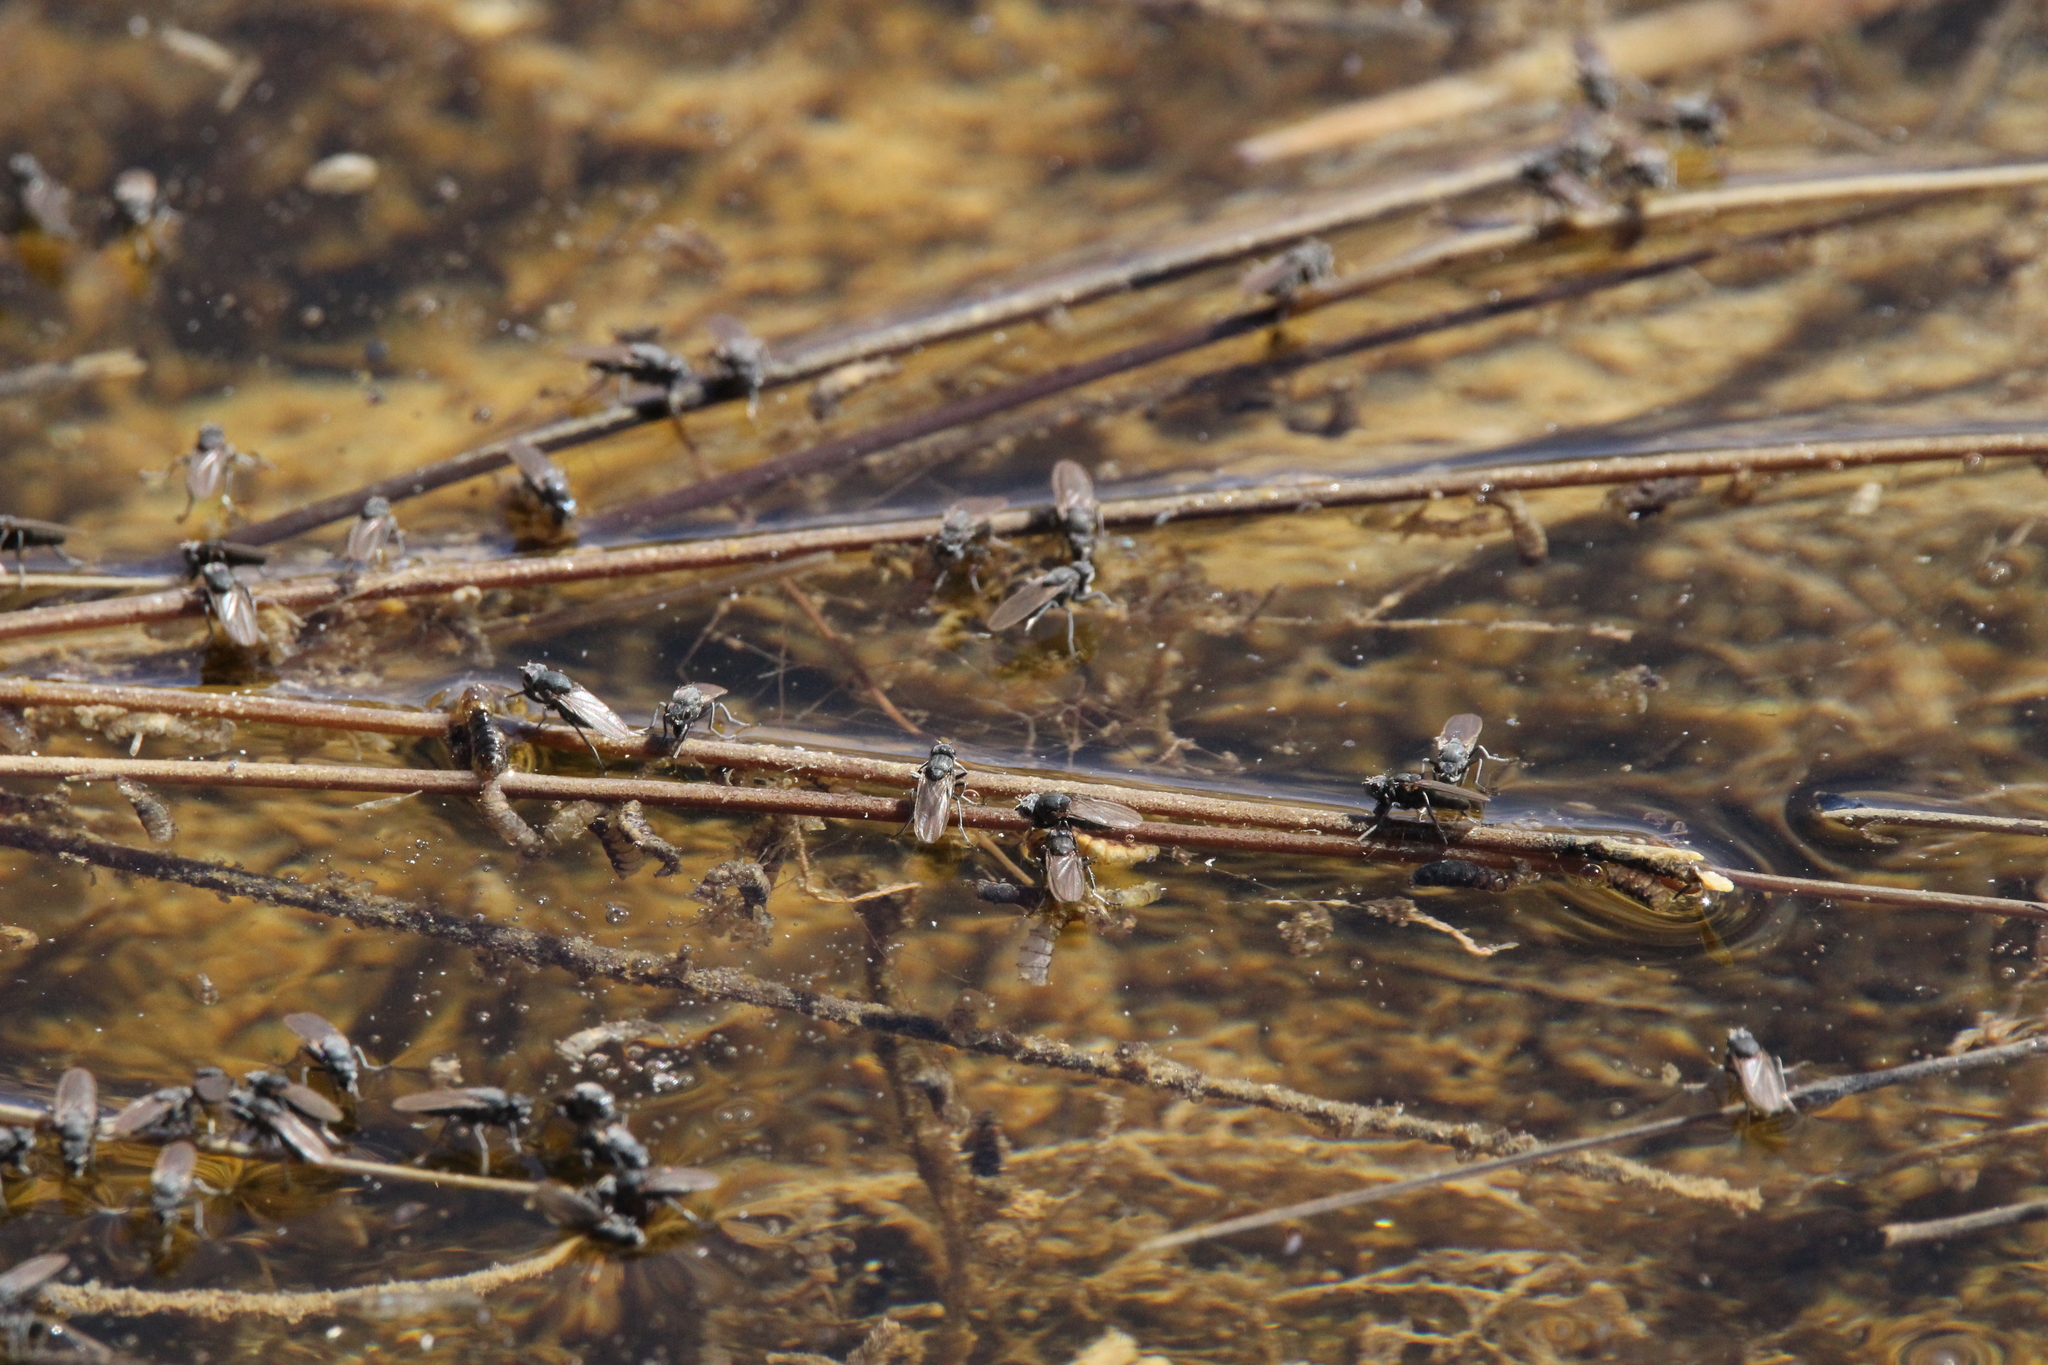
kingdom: Animalia
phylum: Arthropoda
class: Insecta
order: Diptera
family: Ephydridae
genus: Cirrula
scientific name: Cirrula hians
